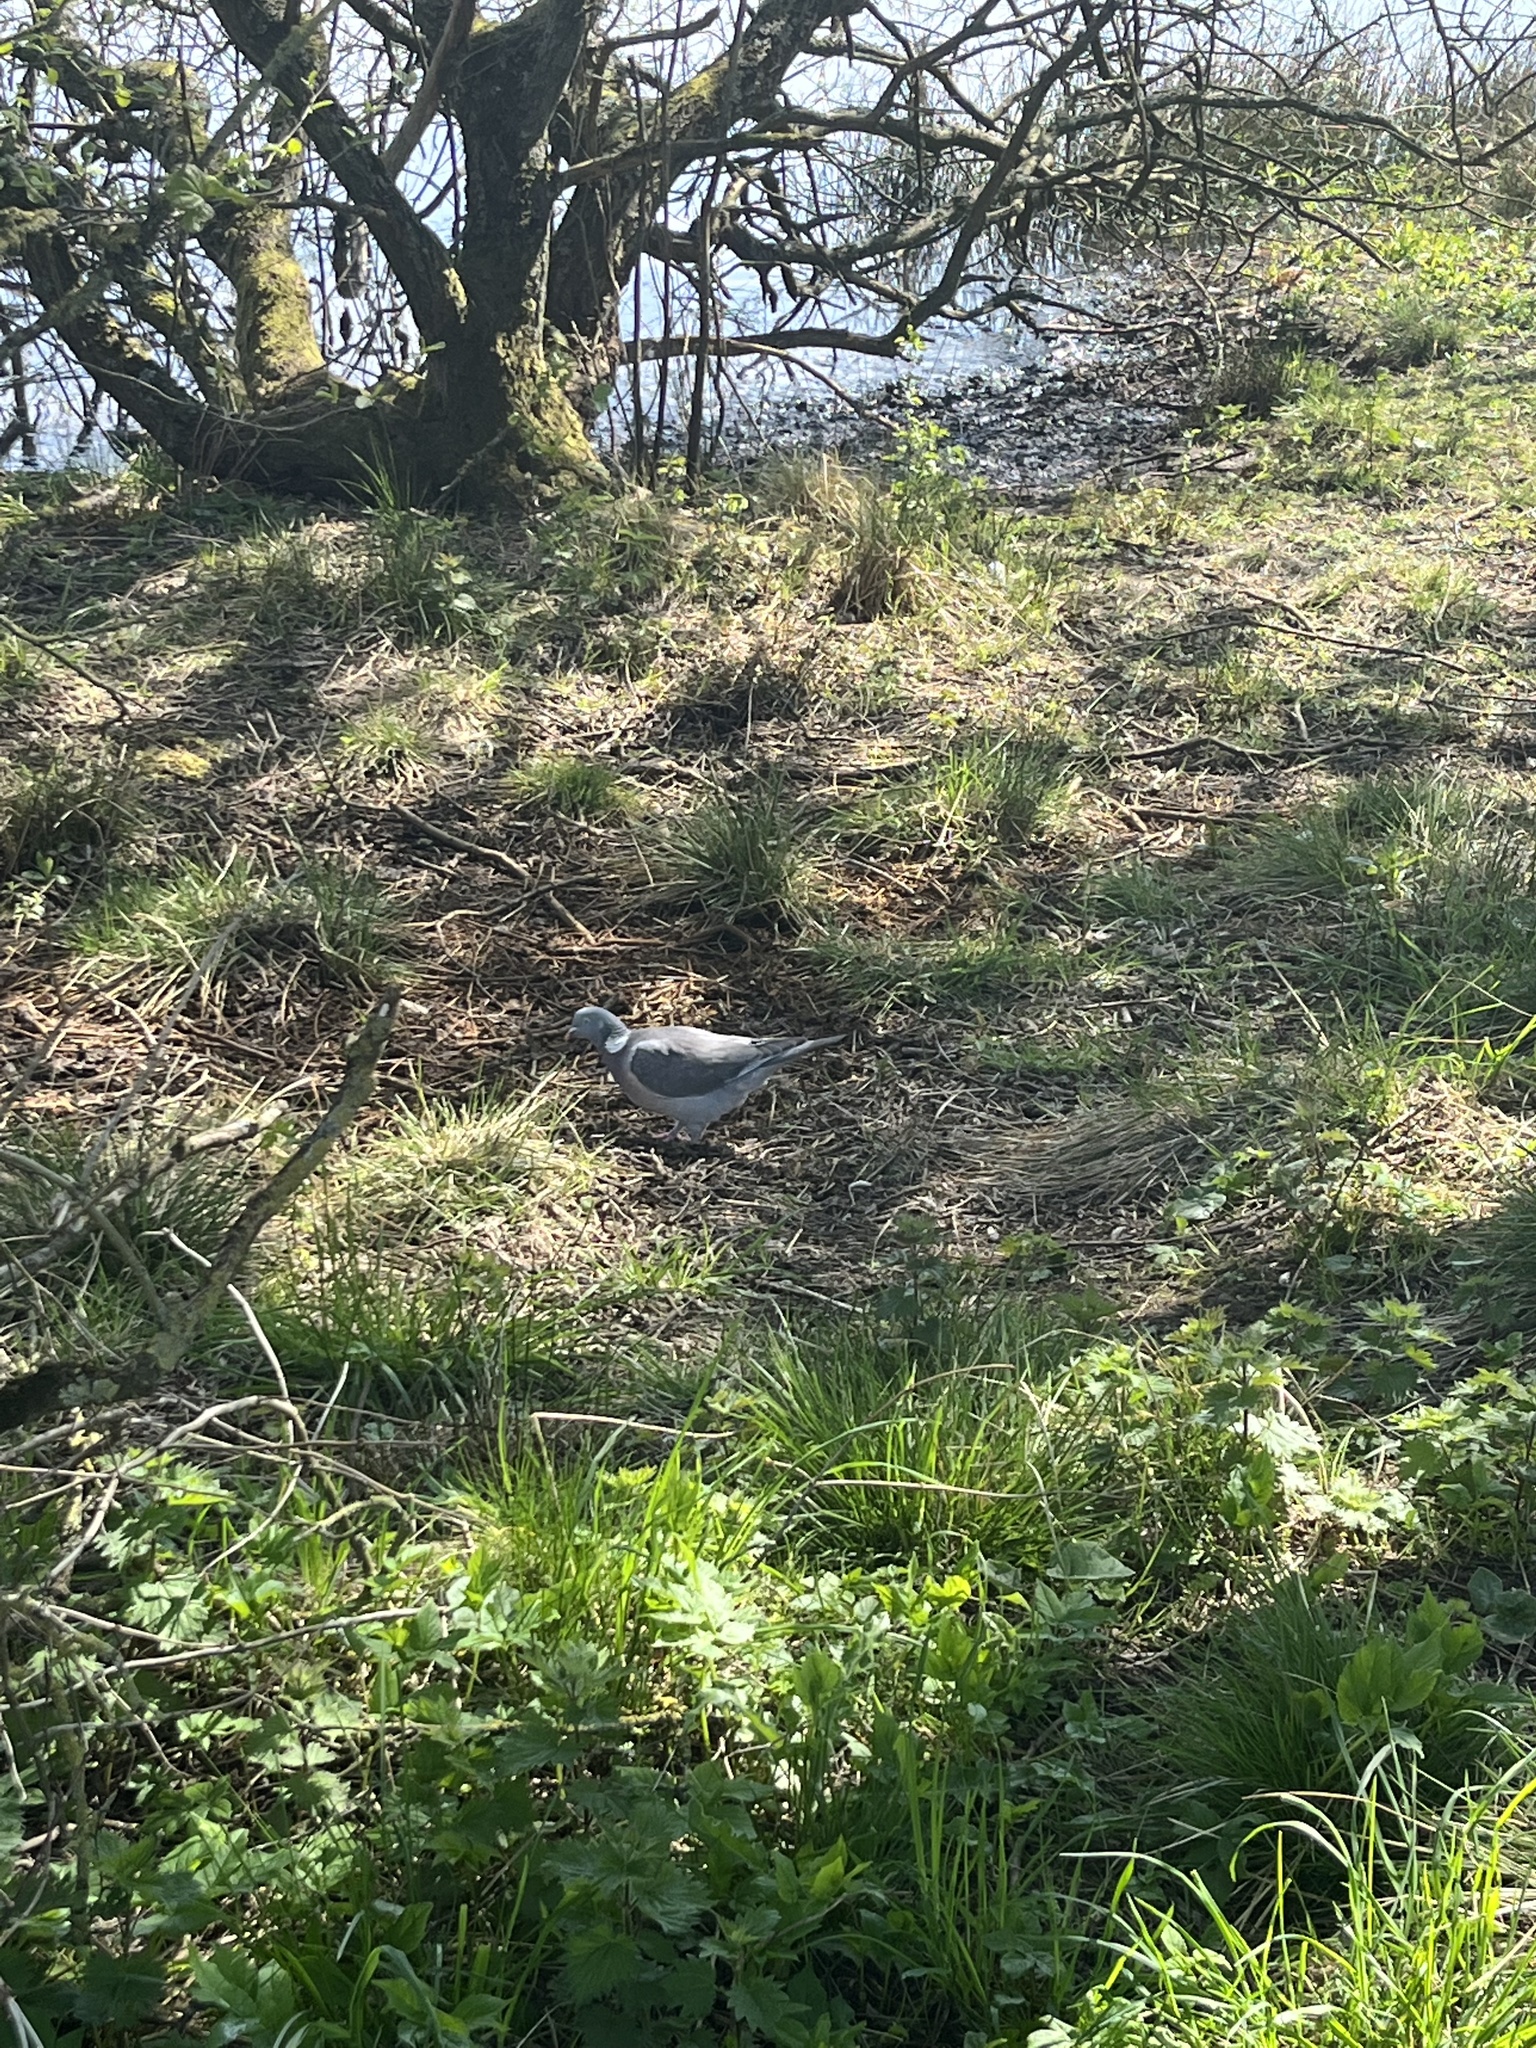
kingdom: Animalia
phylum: Chordata
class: Aves
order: Columbiformes
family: Columbidae
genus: Columba
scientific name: Columba palumbus
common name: Common wood pigeon
